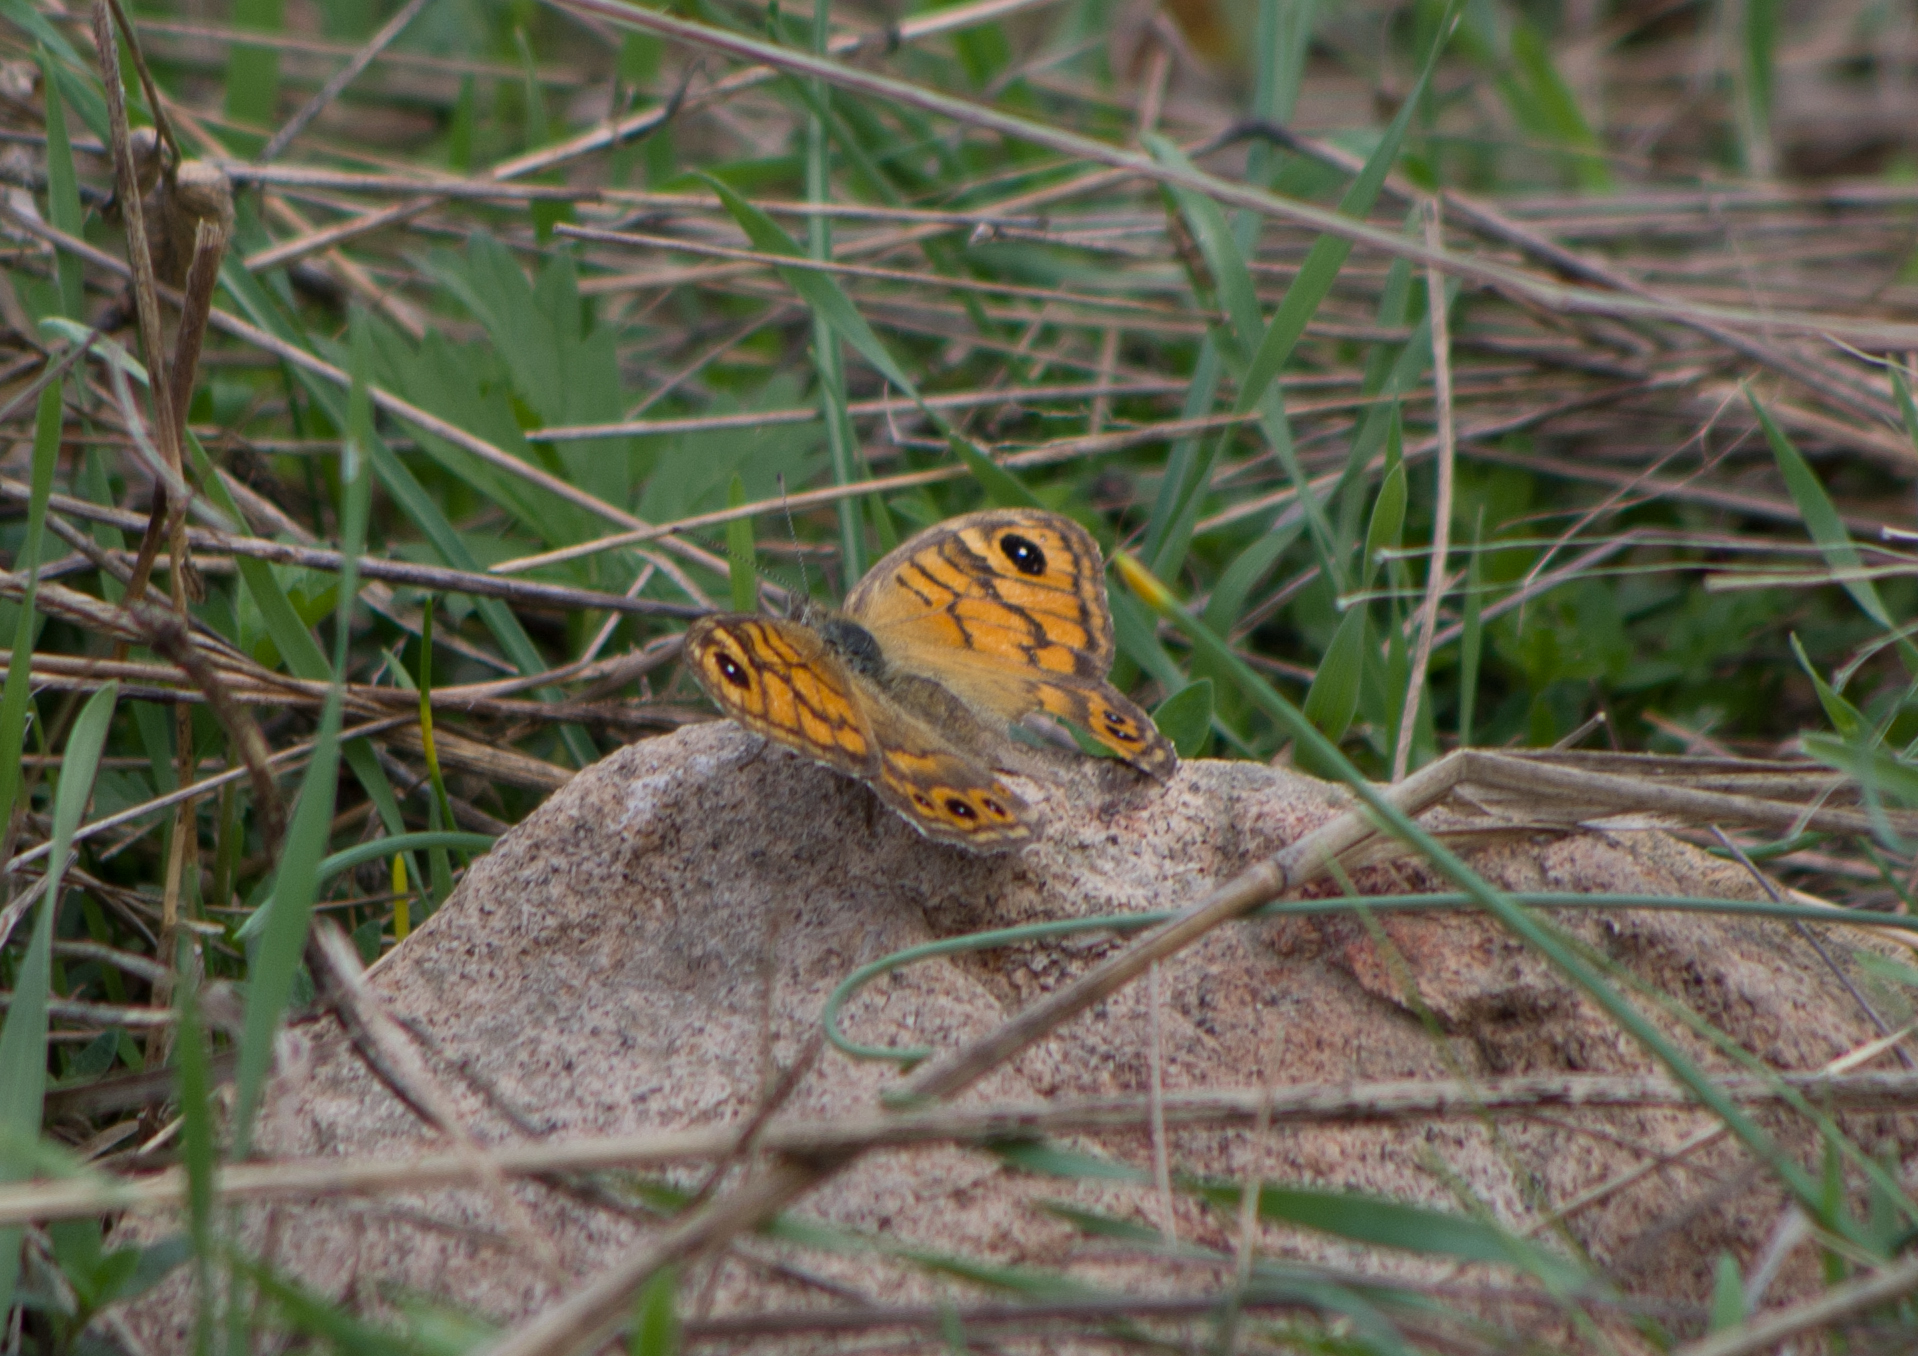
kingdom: Animalia
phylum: Arthropoda
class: Insecta
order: Lepidoptera
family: Nymphalidae
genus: Pararge
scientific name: Pararge Lasiommata megera
